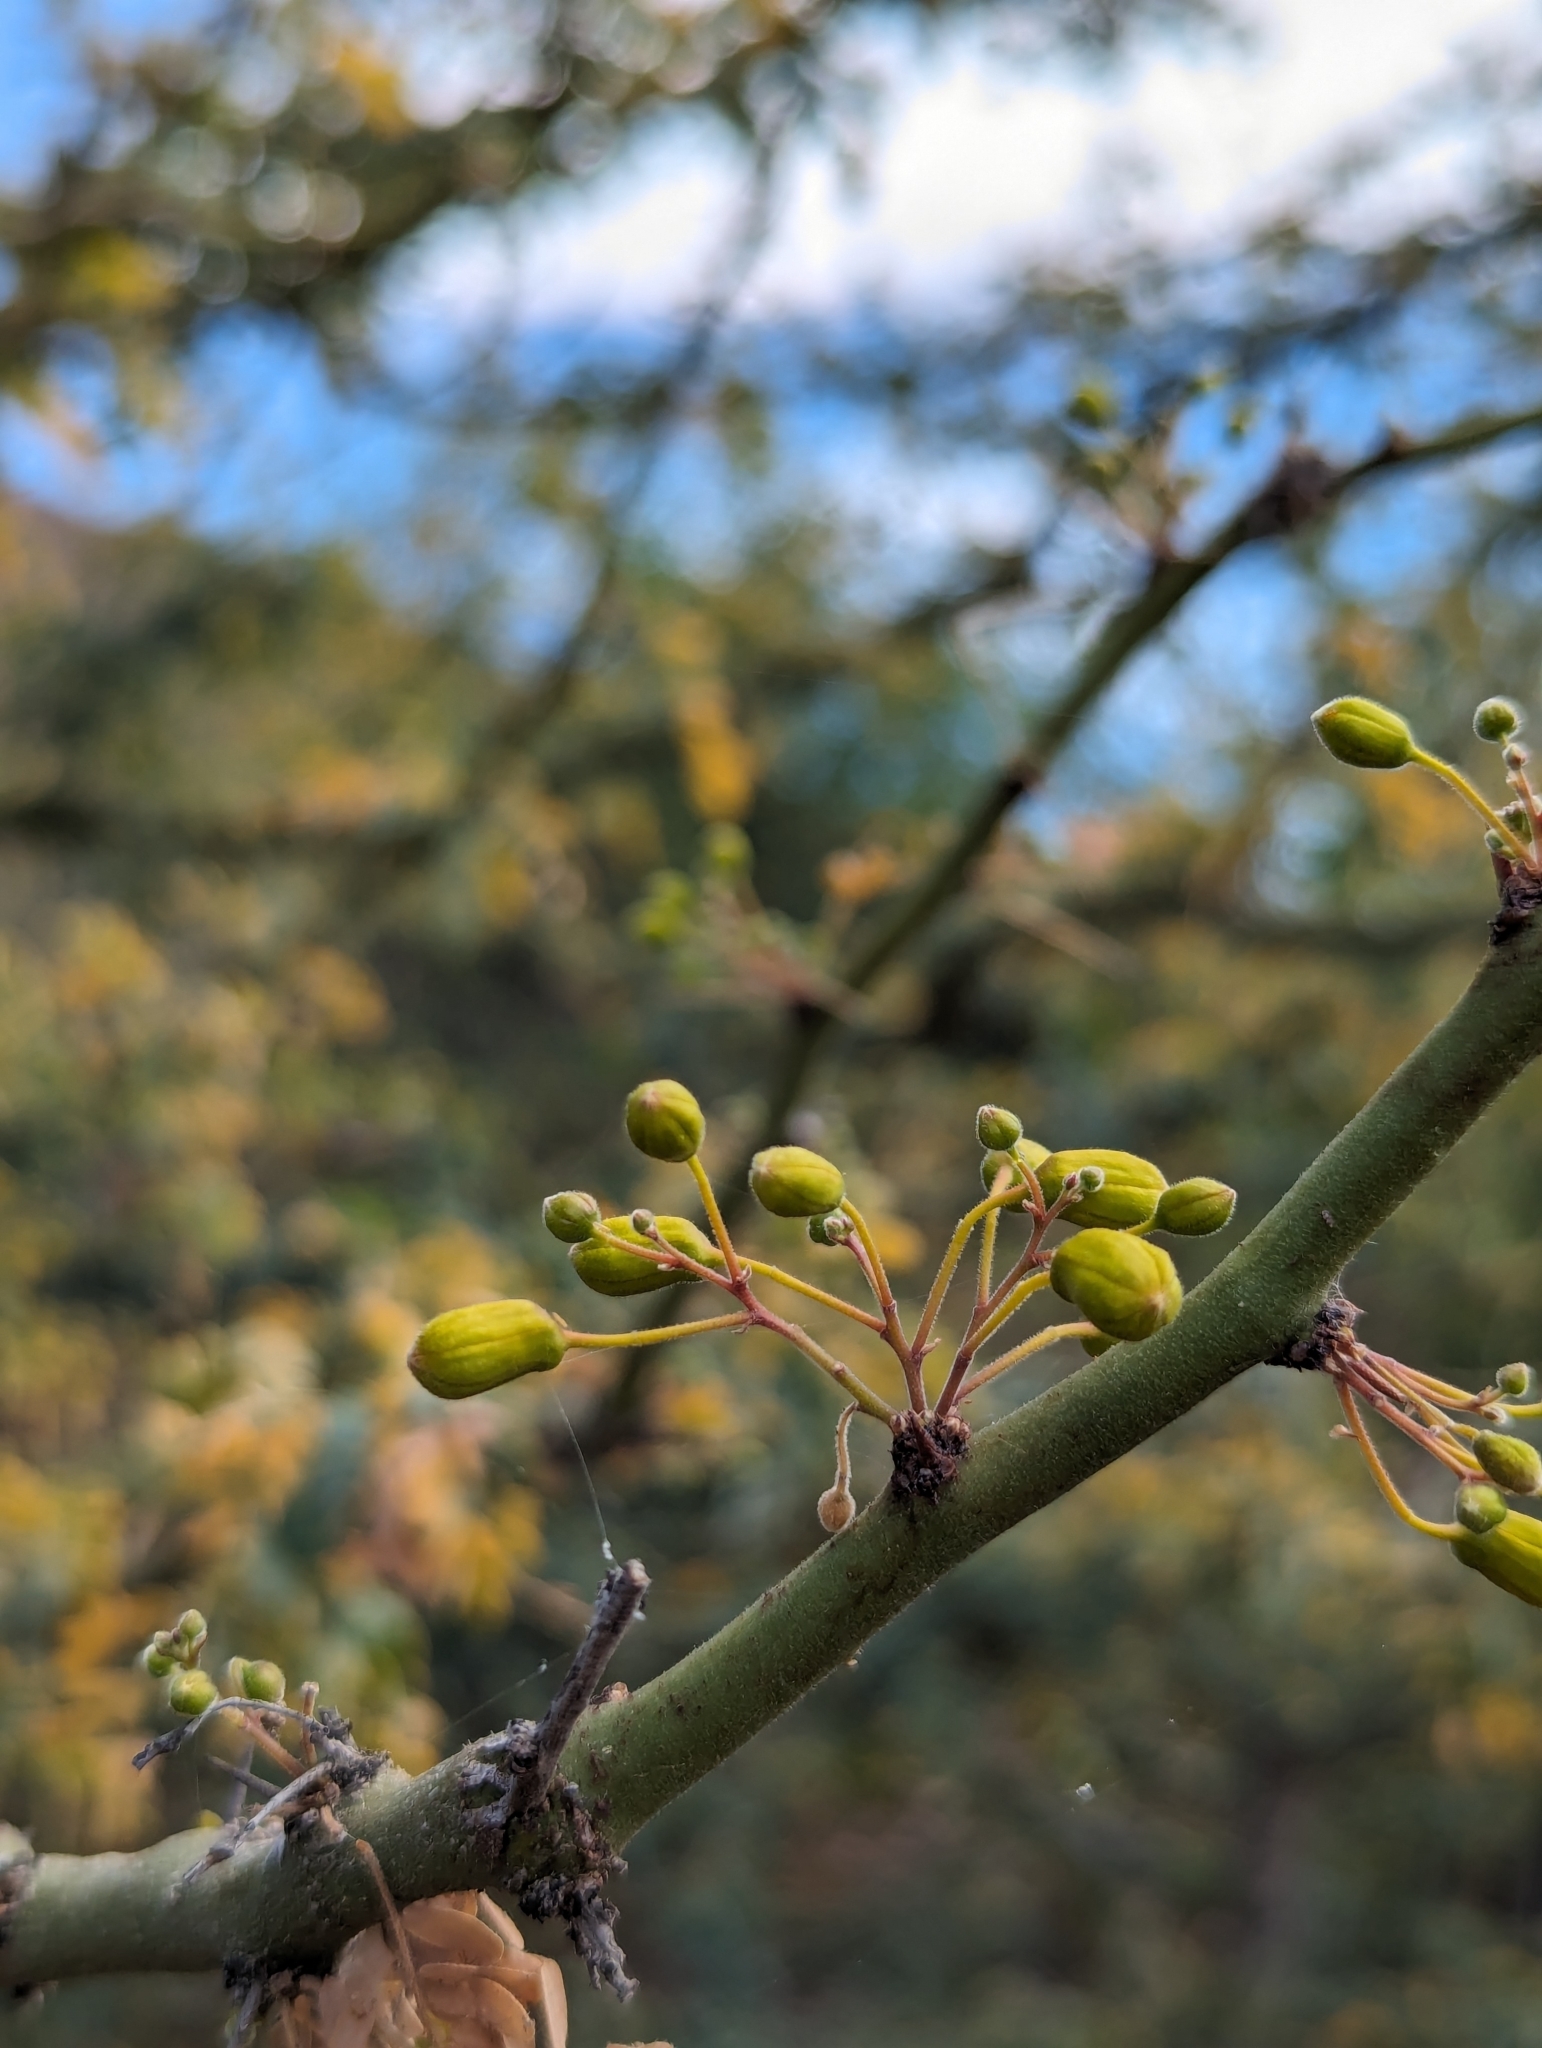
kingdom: Plantae
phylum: Tracheophyta
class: Magnoliopsida
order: Fabales
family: Fabaceae
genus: Parkinsonia
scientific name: Parkinsonia praecox
